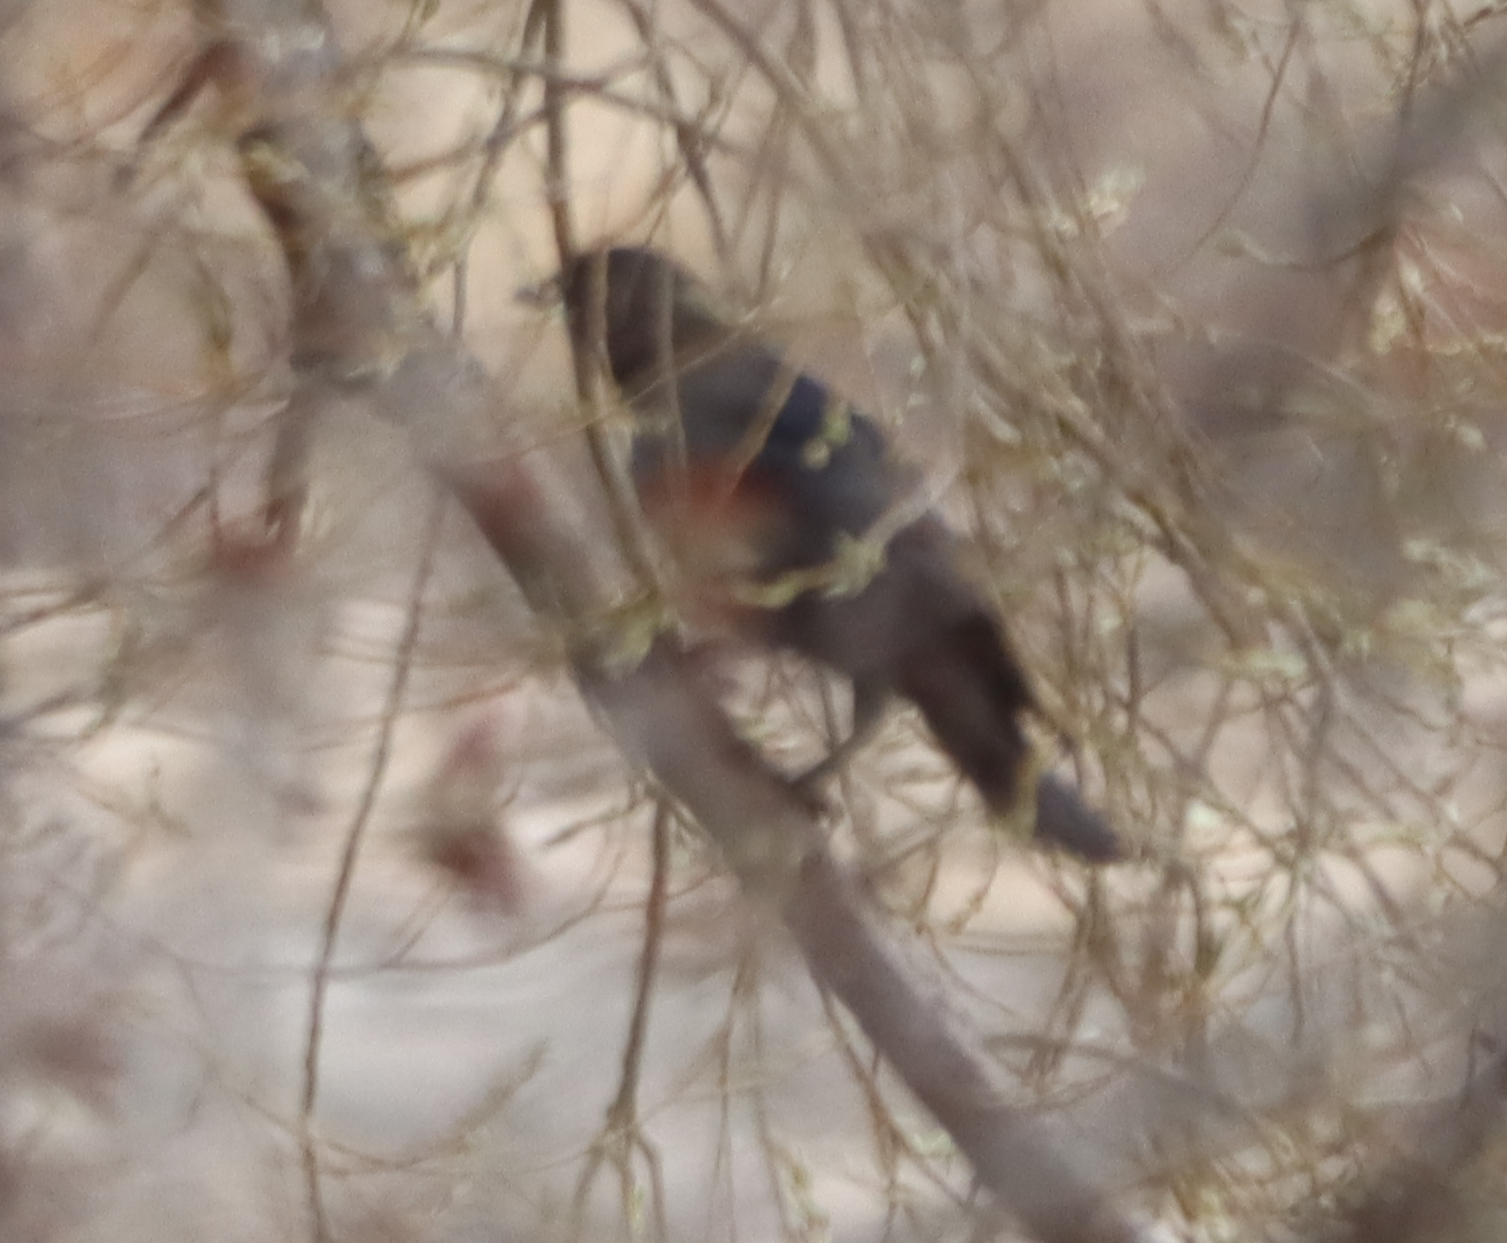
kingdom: Animalia
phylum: Chordata
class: Aves
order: Passeriformes
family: Icteridae
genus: Agelaius
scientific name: Agelaius phoeniceus
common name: Red-winged blackbird
